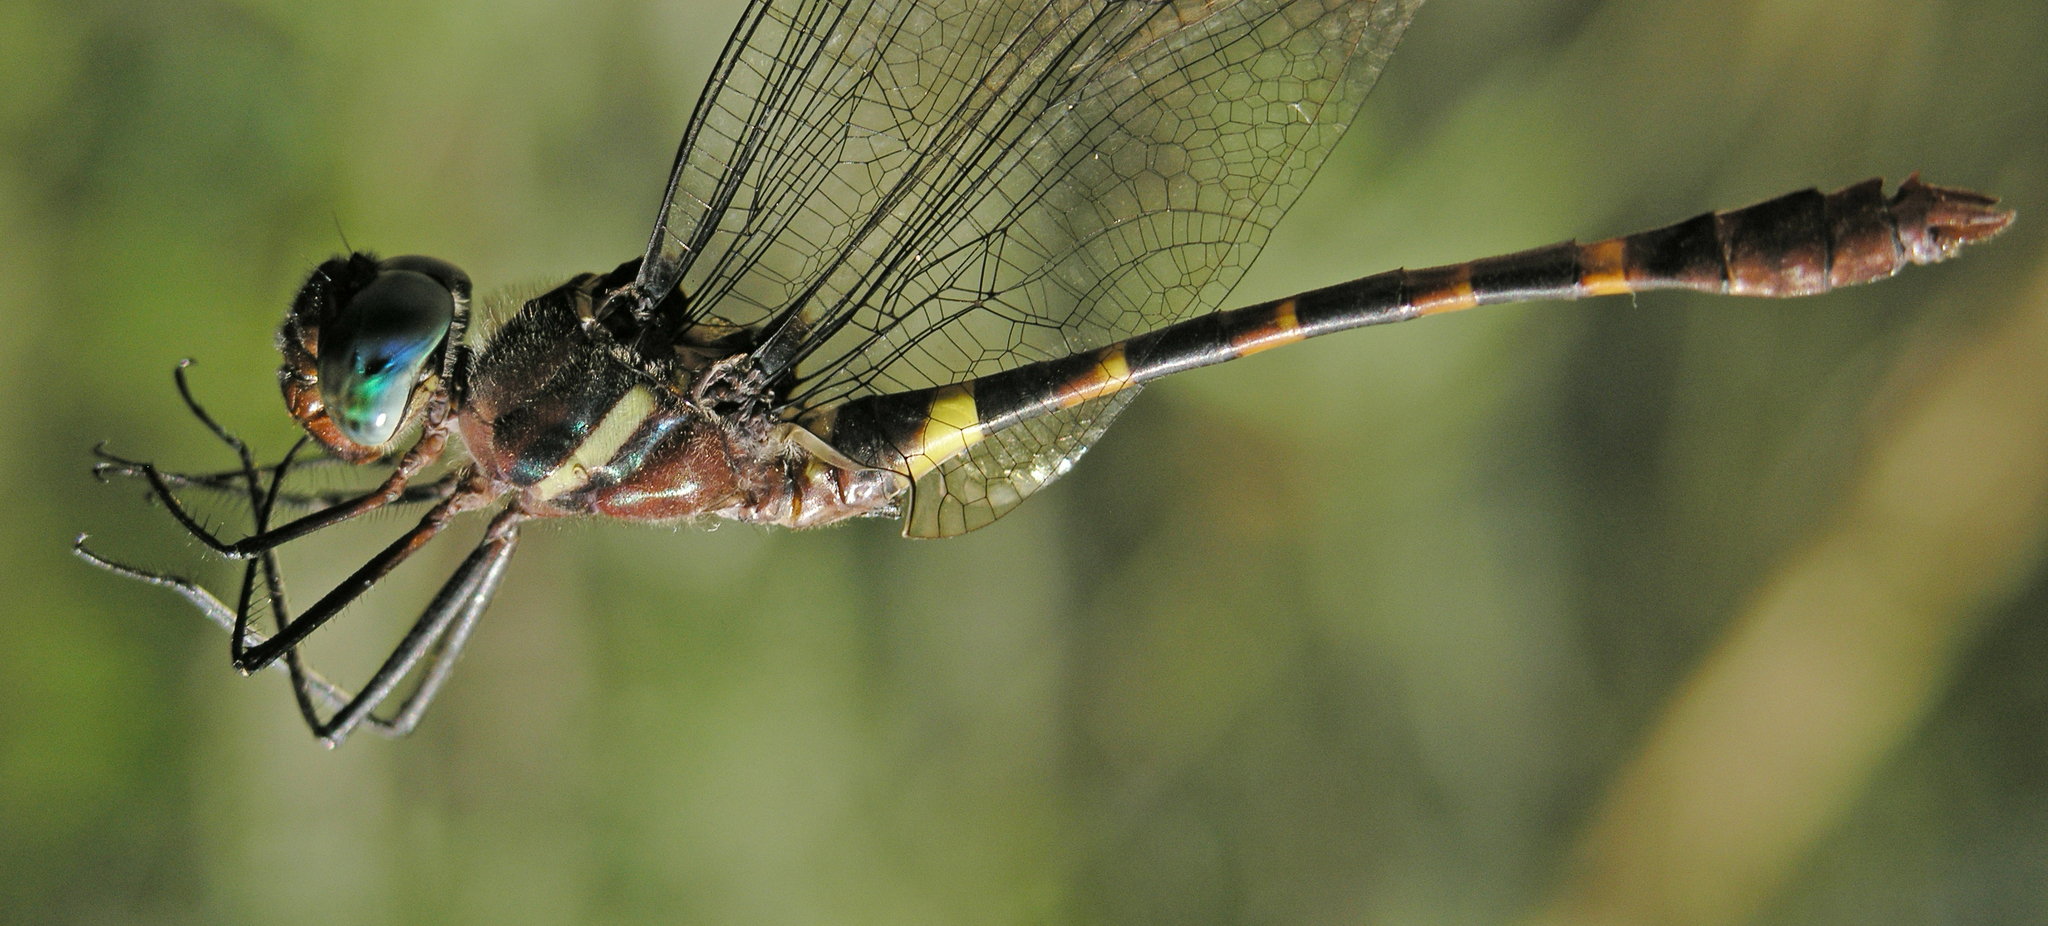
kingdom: Animalia
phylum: Arthropoda
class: Insecta
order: Odonata
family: Macromiidae
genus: Macromia
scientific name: Macromia cupricincta
